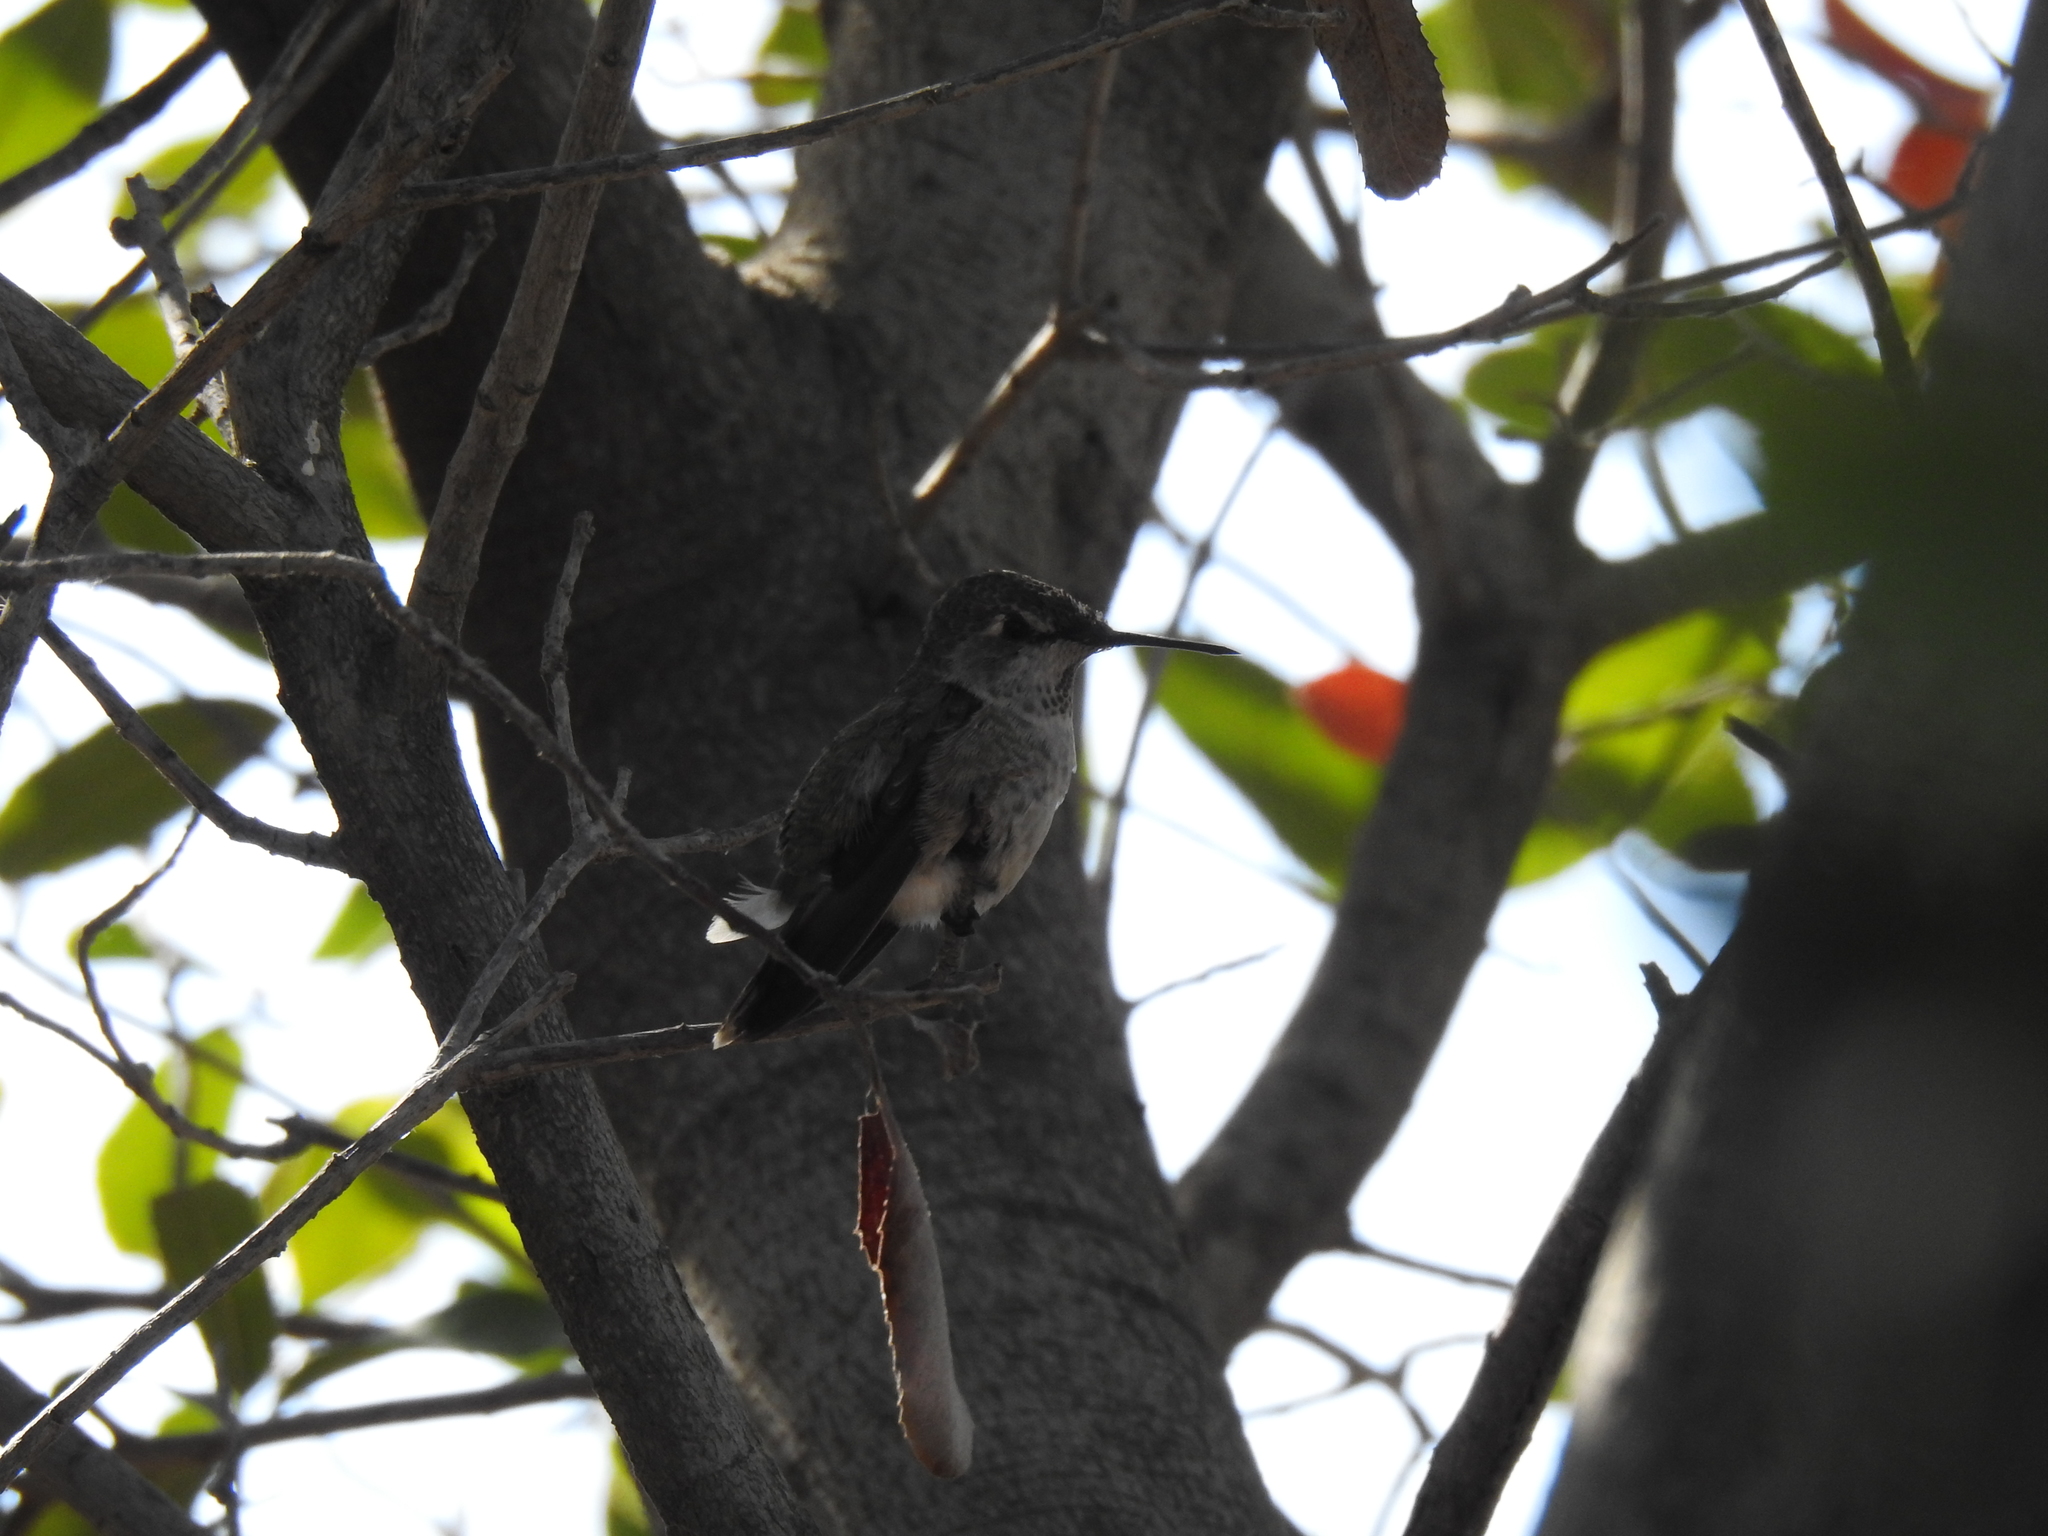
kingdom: Animalia
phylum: Chordata
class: Aves
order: Apodiformes
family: Trochilidae
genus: Calypte
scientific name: Calypte anna
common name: Anna's hummingbird
